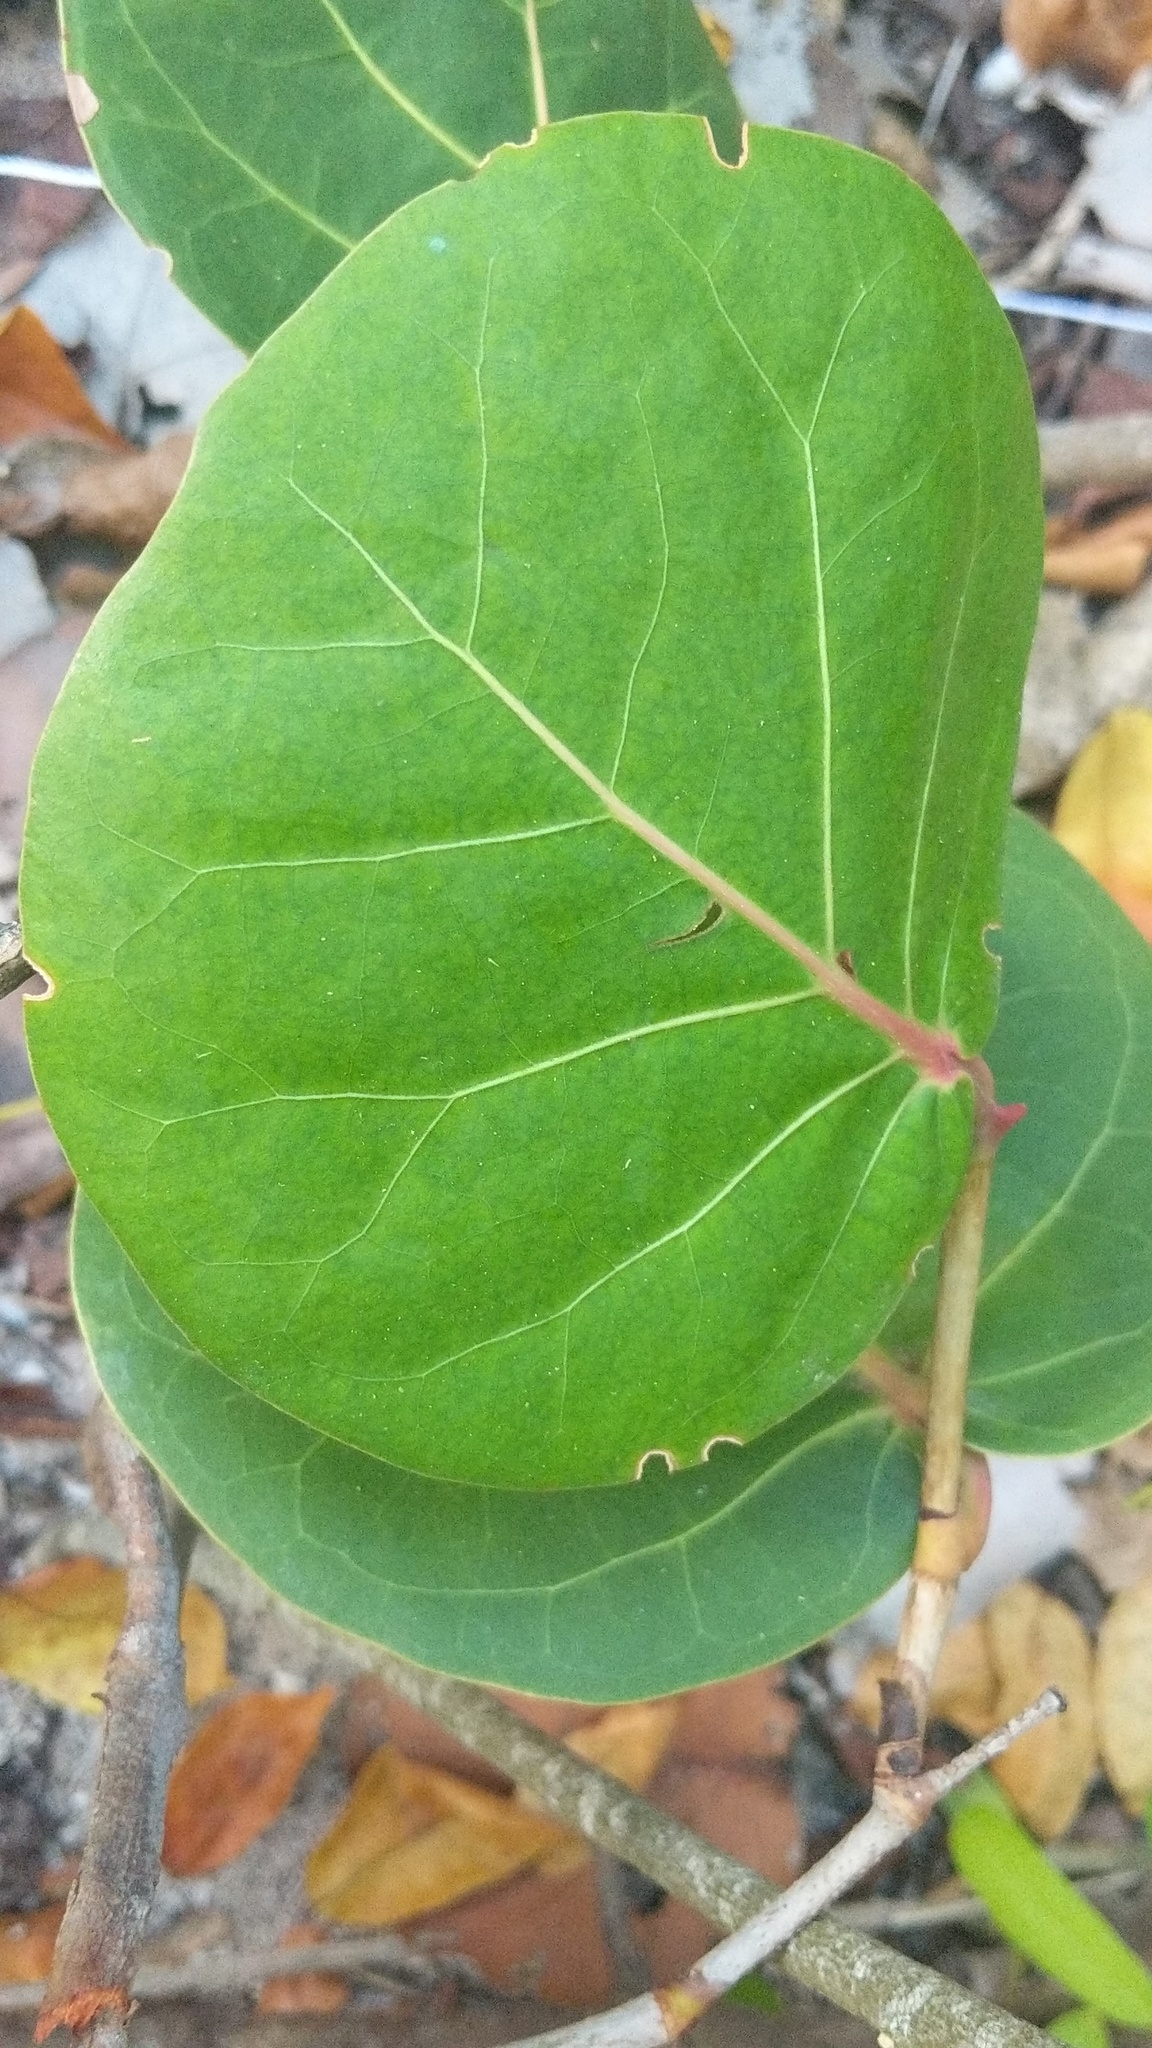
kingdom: Plantae
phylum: Tracheophyta
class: Magnoliopsida
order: Caryophyllales
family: Polygonaceae
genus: Coccoloba
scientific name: Coccoloba uvifera
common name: Seagrape
